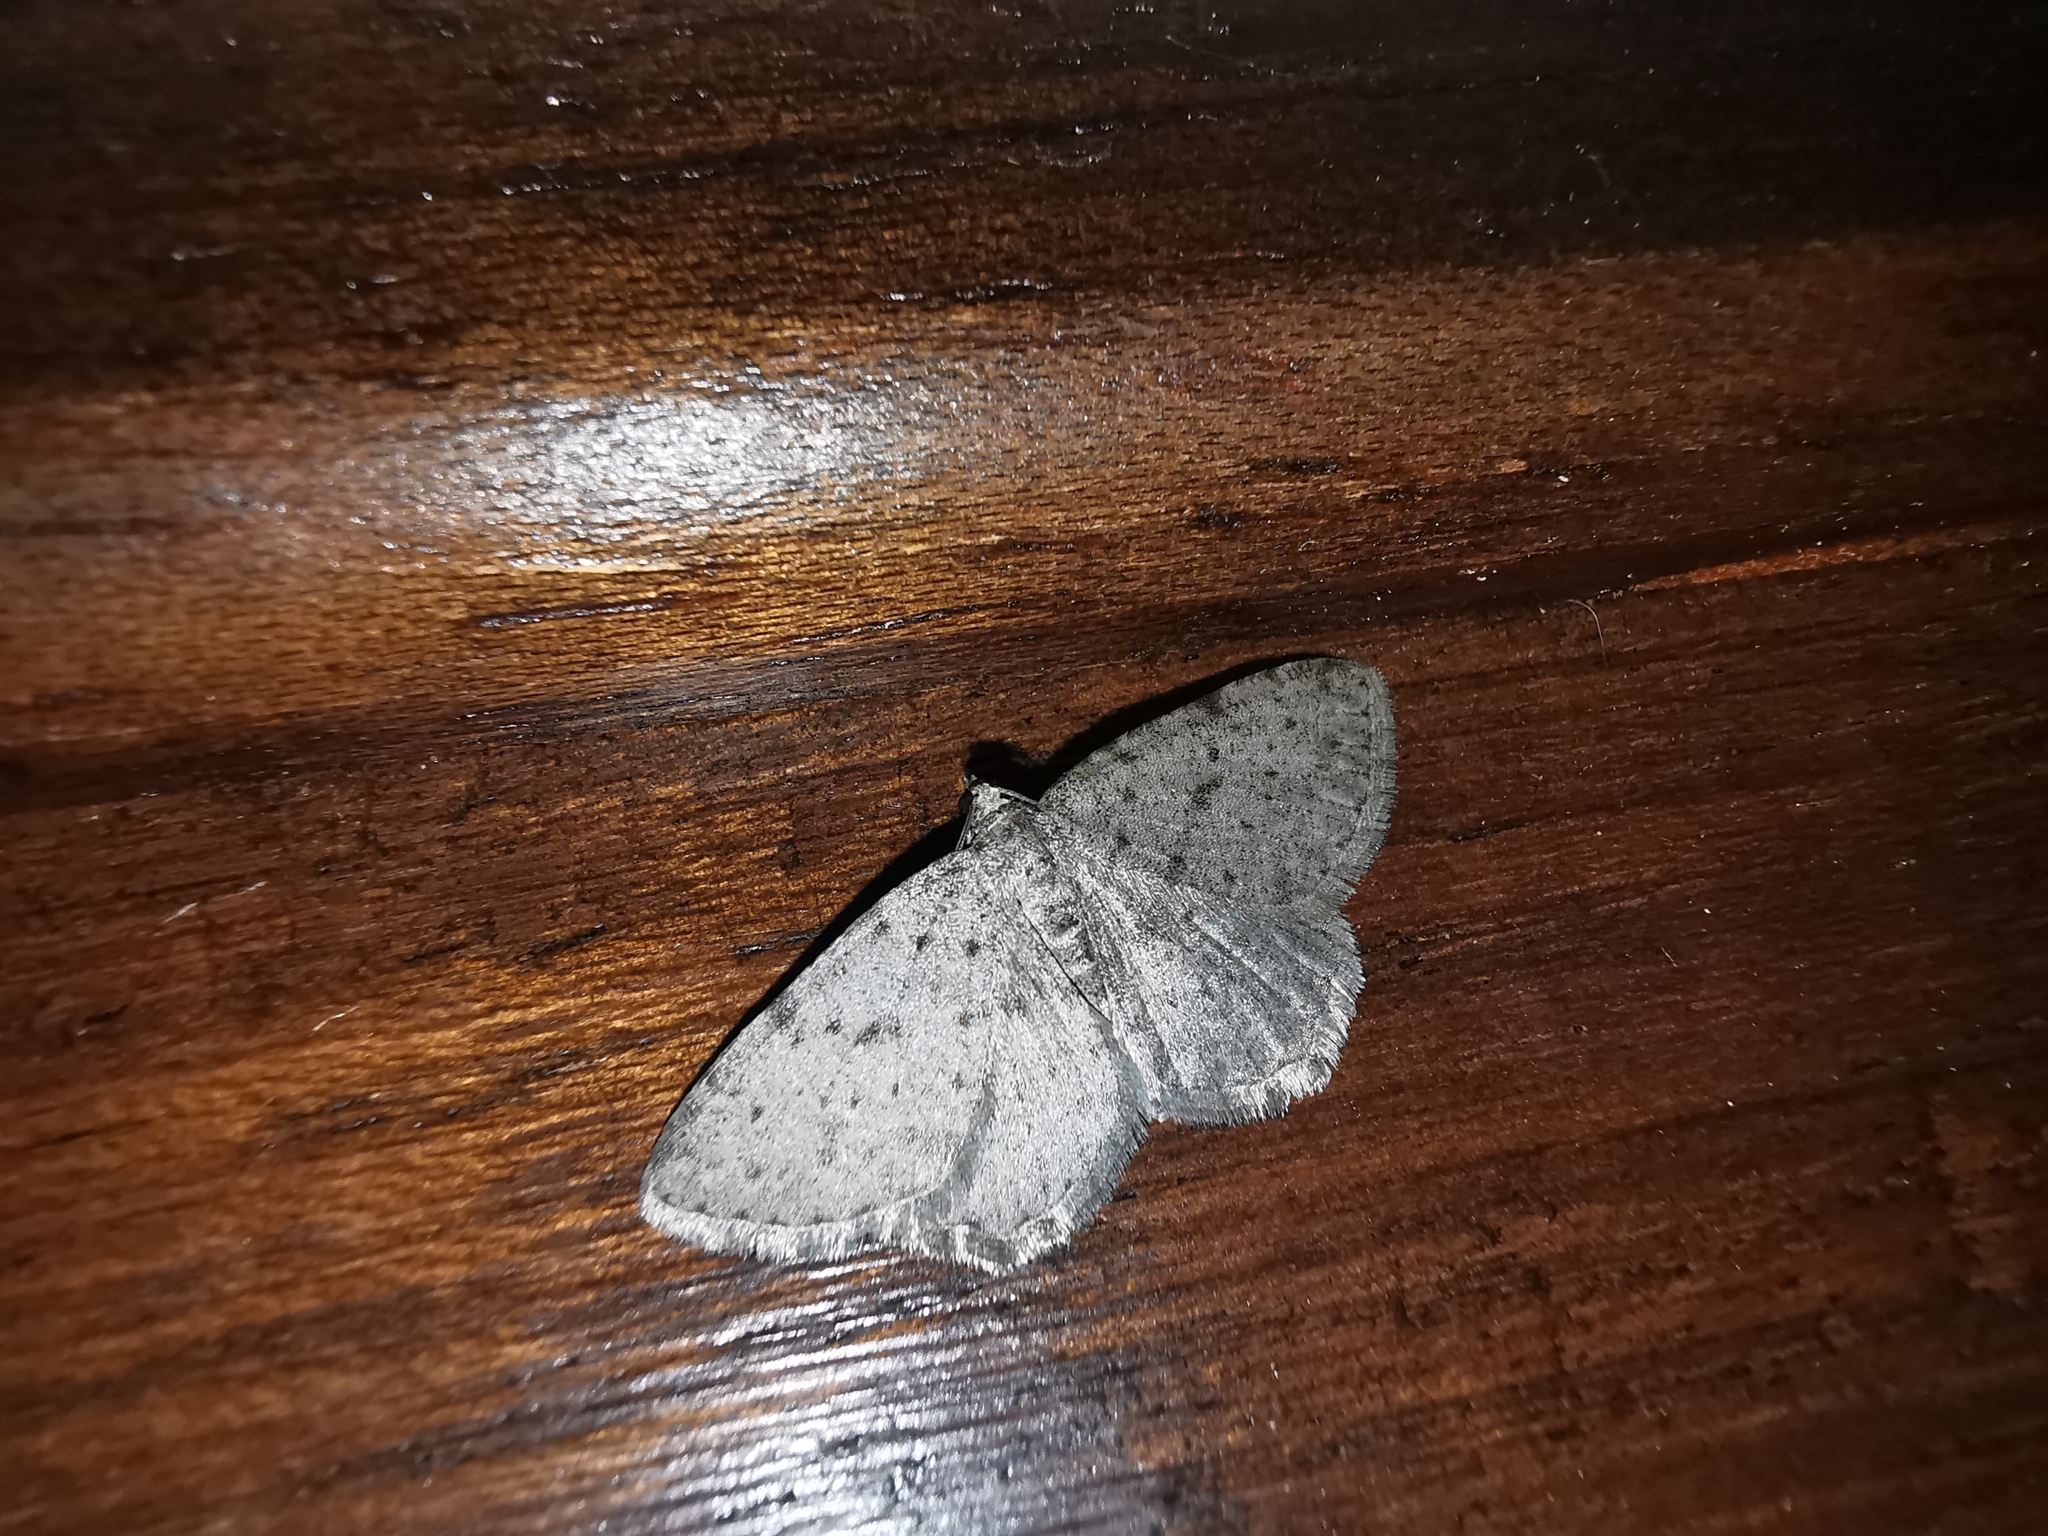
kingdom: Animalia
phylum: Arthropoda
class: Insecta
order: Lepidoptera
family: Geometridae
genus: Rhoptria
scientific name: Rhoptria dolosaria
